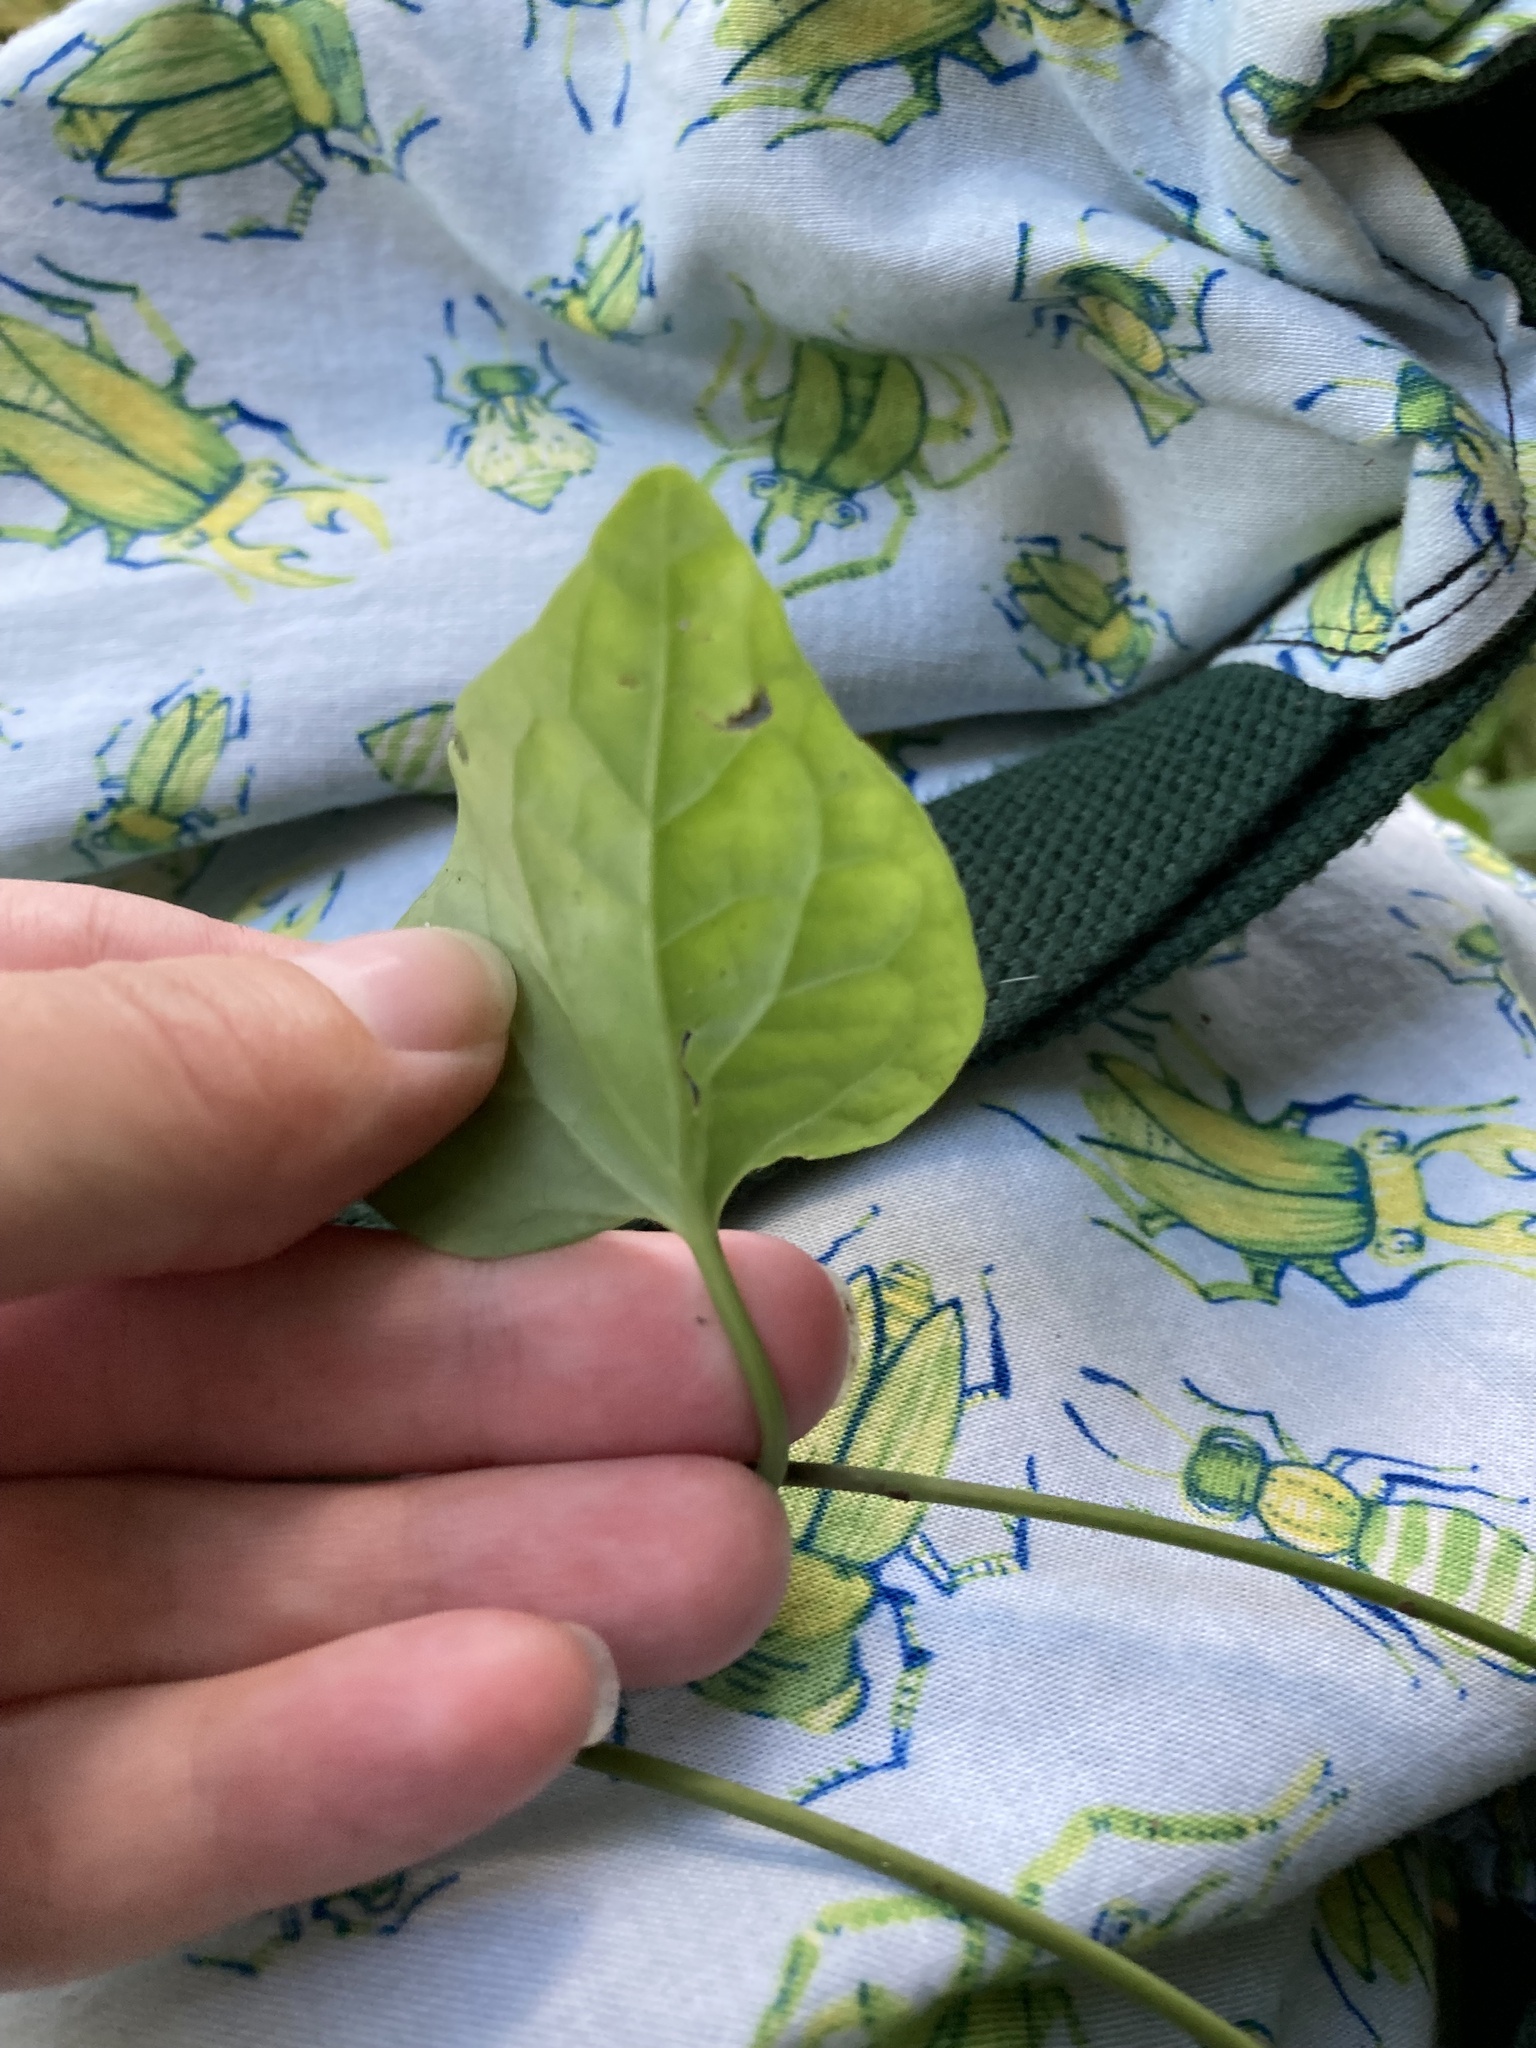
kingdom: Plantae
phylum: Tracheophyta
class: Magnoliopsida
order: Piperales
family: Piperaceae
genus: Piper
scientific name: Piper sarmentosum
